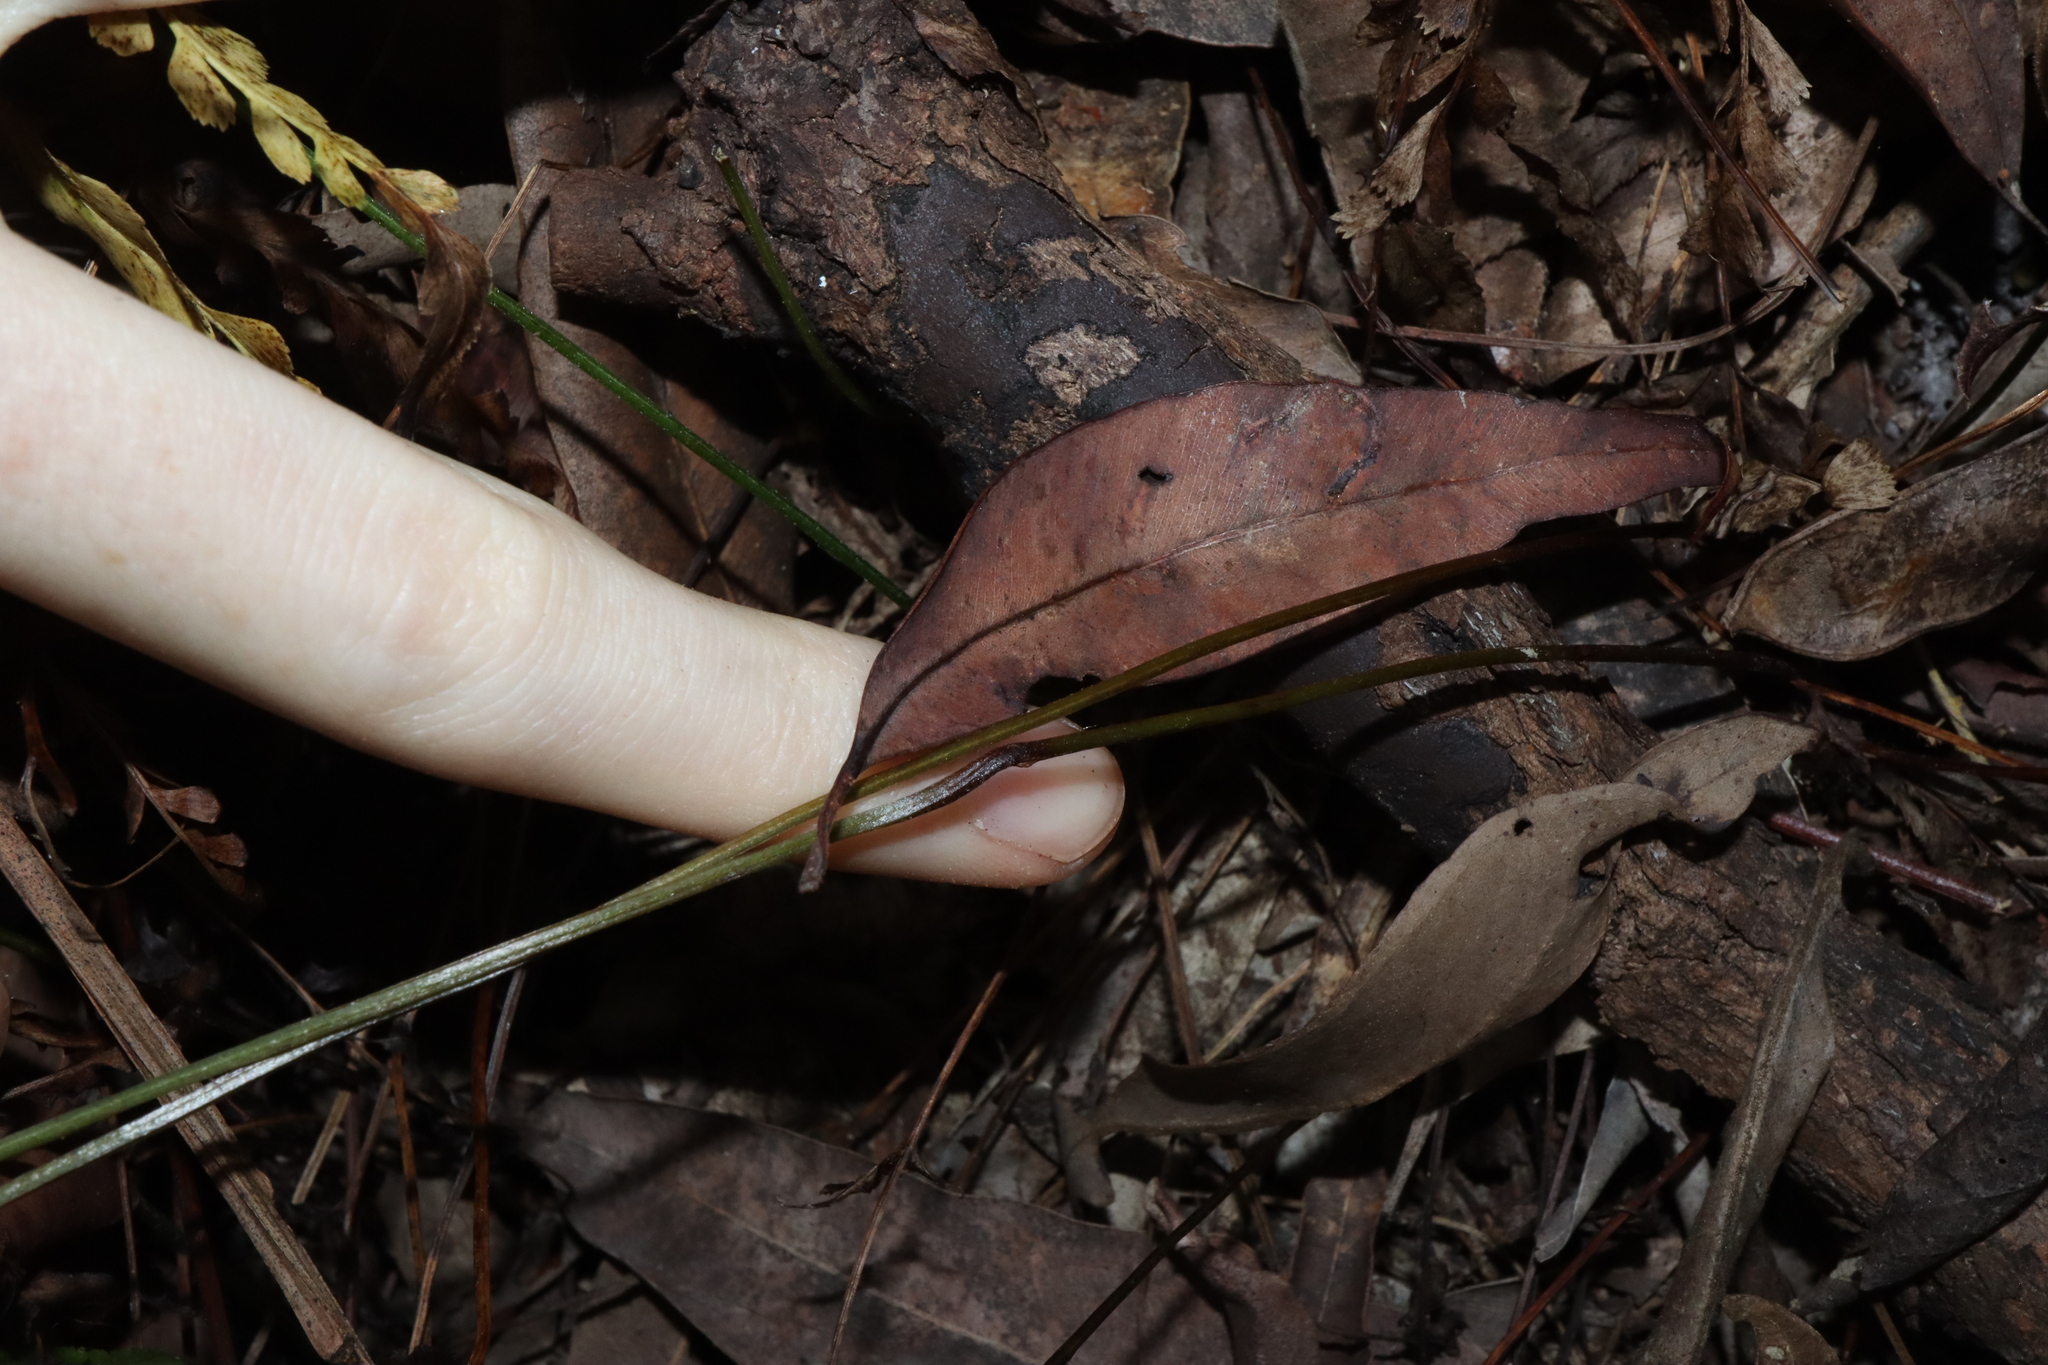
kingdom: Plantae
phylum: Tracheophyta
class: Polypodiopsida
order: Polypodiales
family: Lindsaeaceae
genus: Lindsaea
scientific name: Lindsaea media
